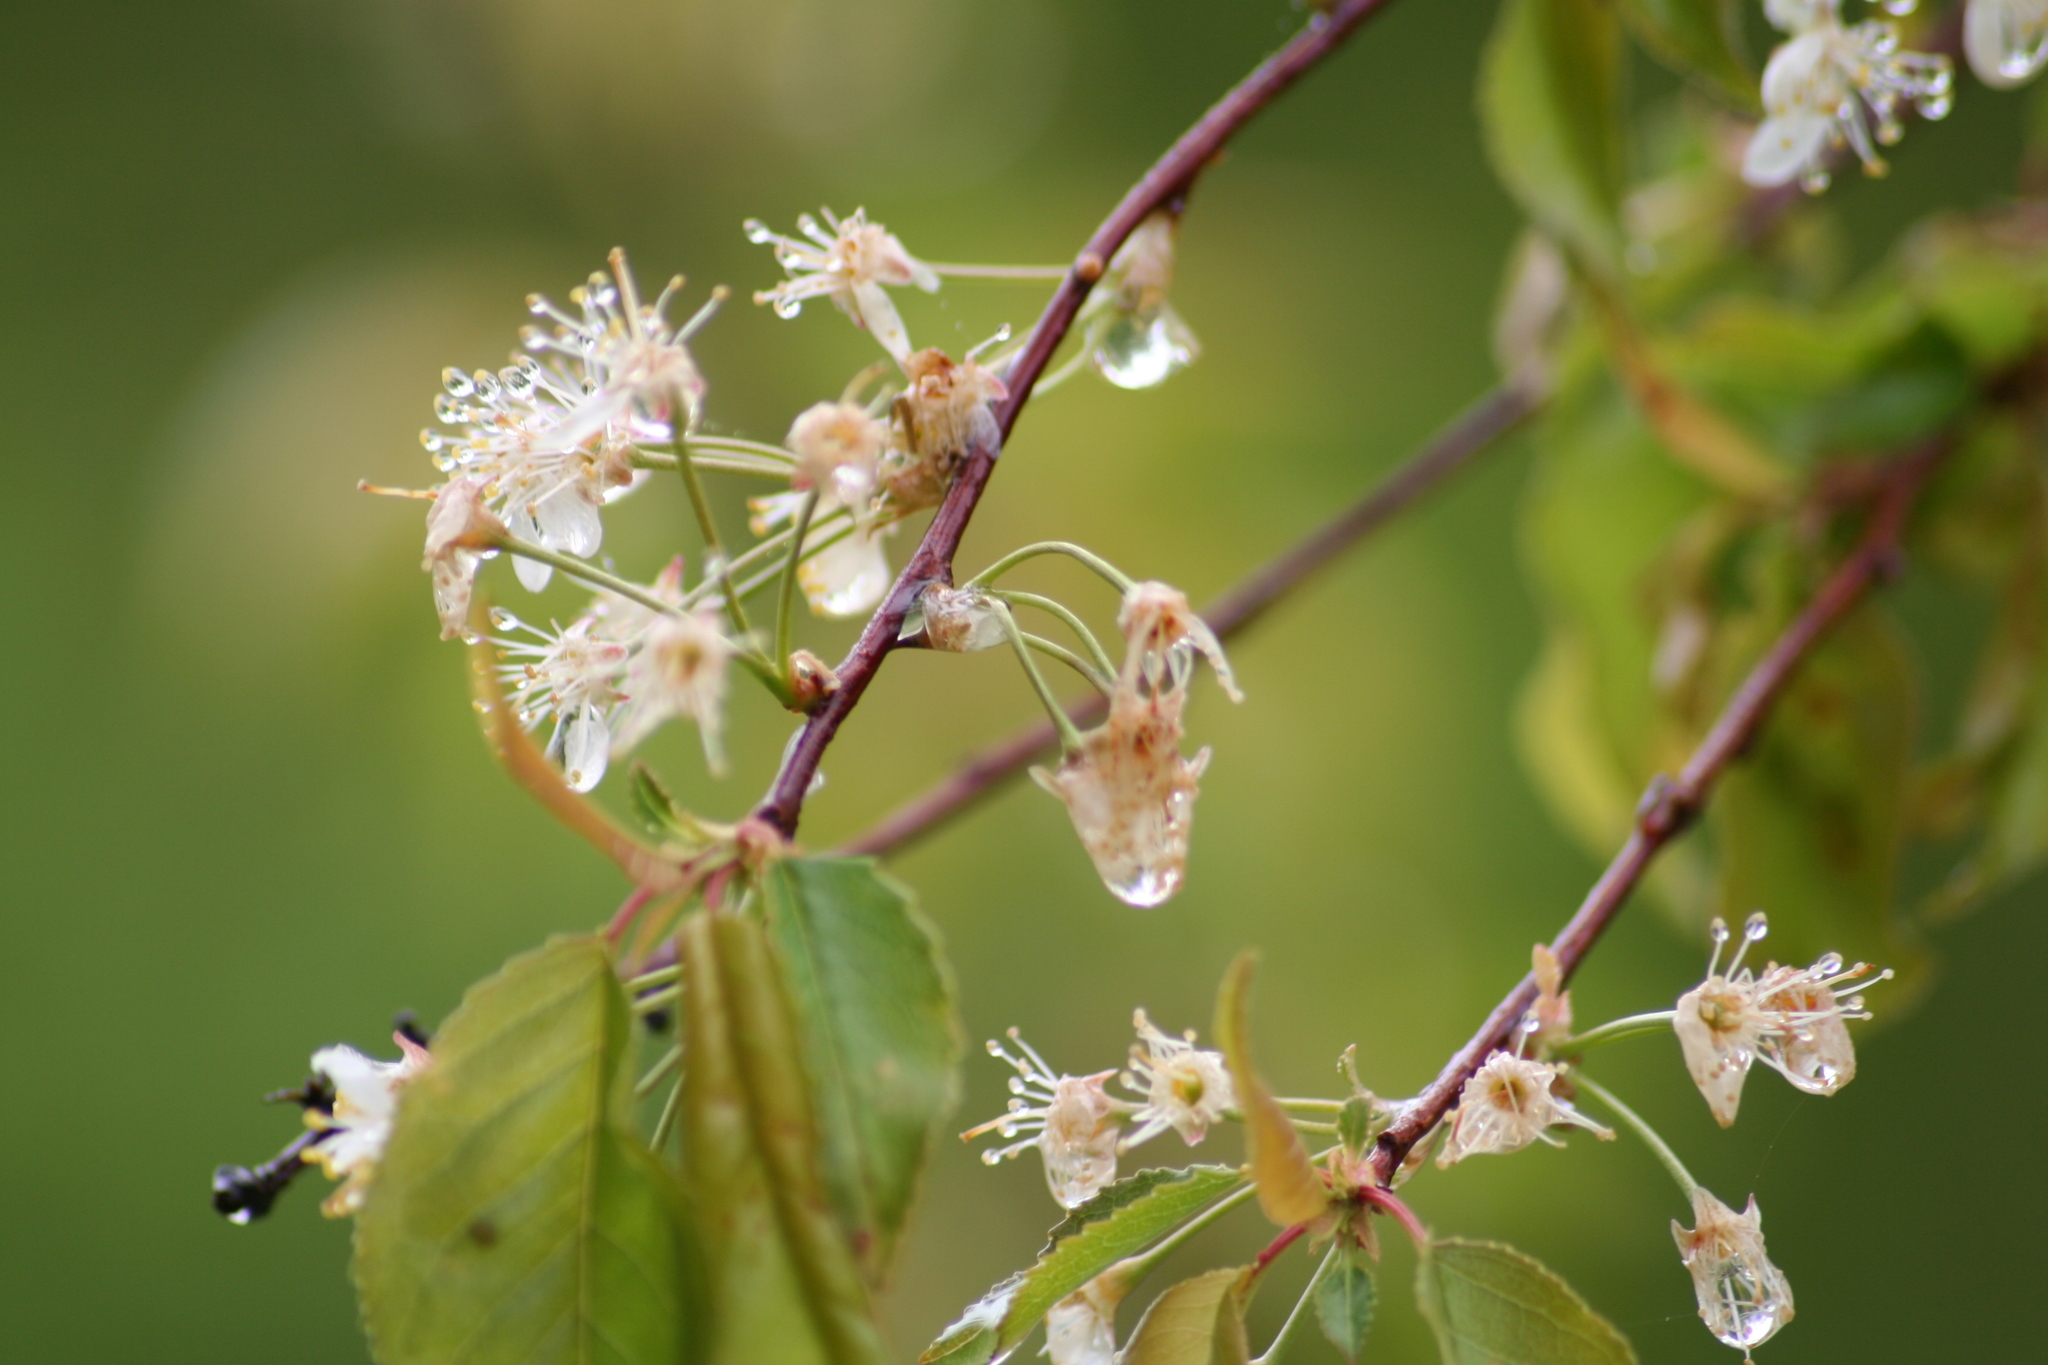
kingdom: Plantae
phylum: Tracheophyta
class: Magnoliopsida
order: Rosales
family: Rosaceae
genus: Prunus
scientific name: Prunus pensylvanica
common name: Pin cherry
